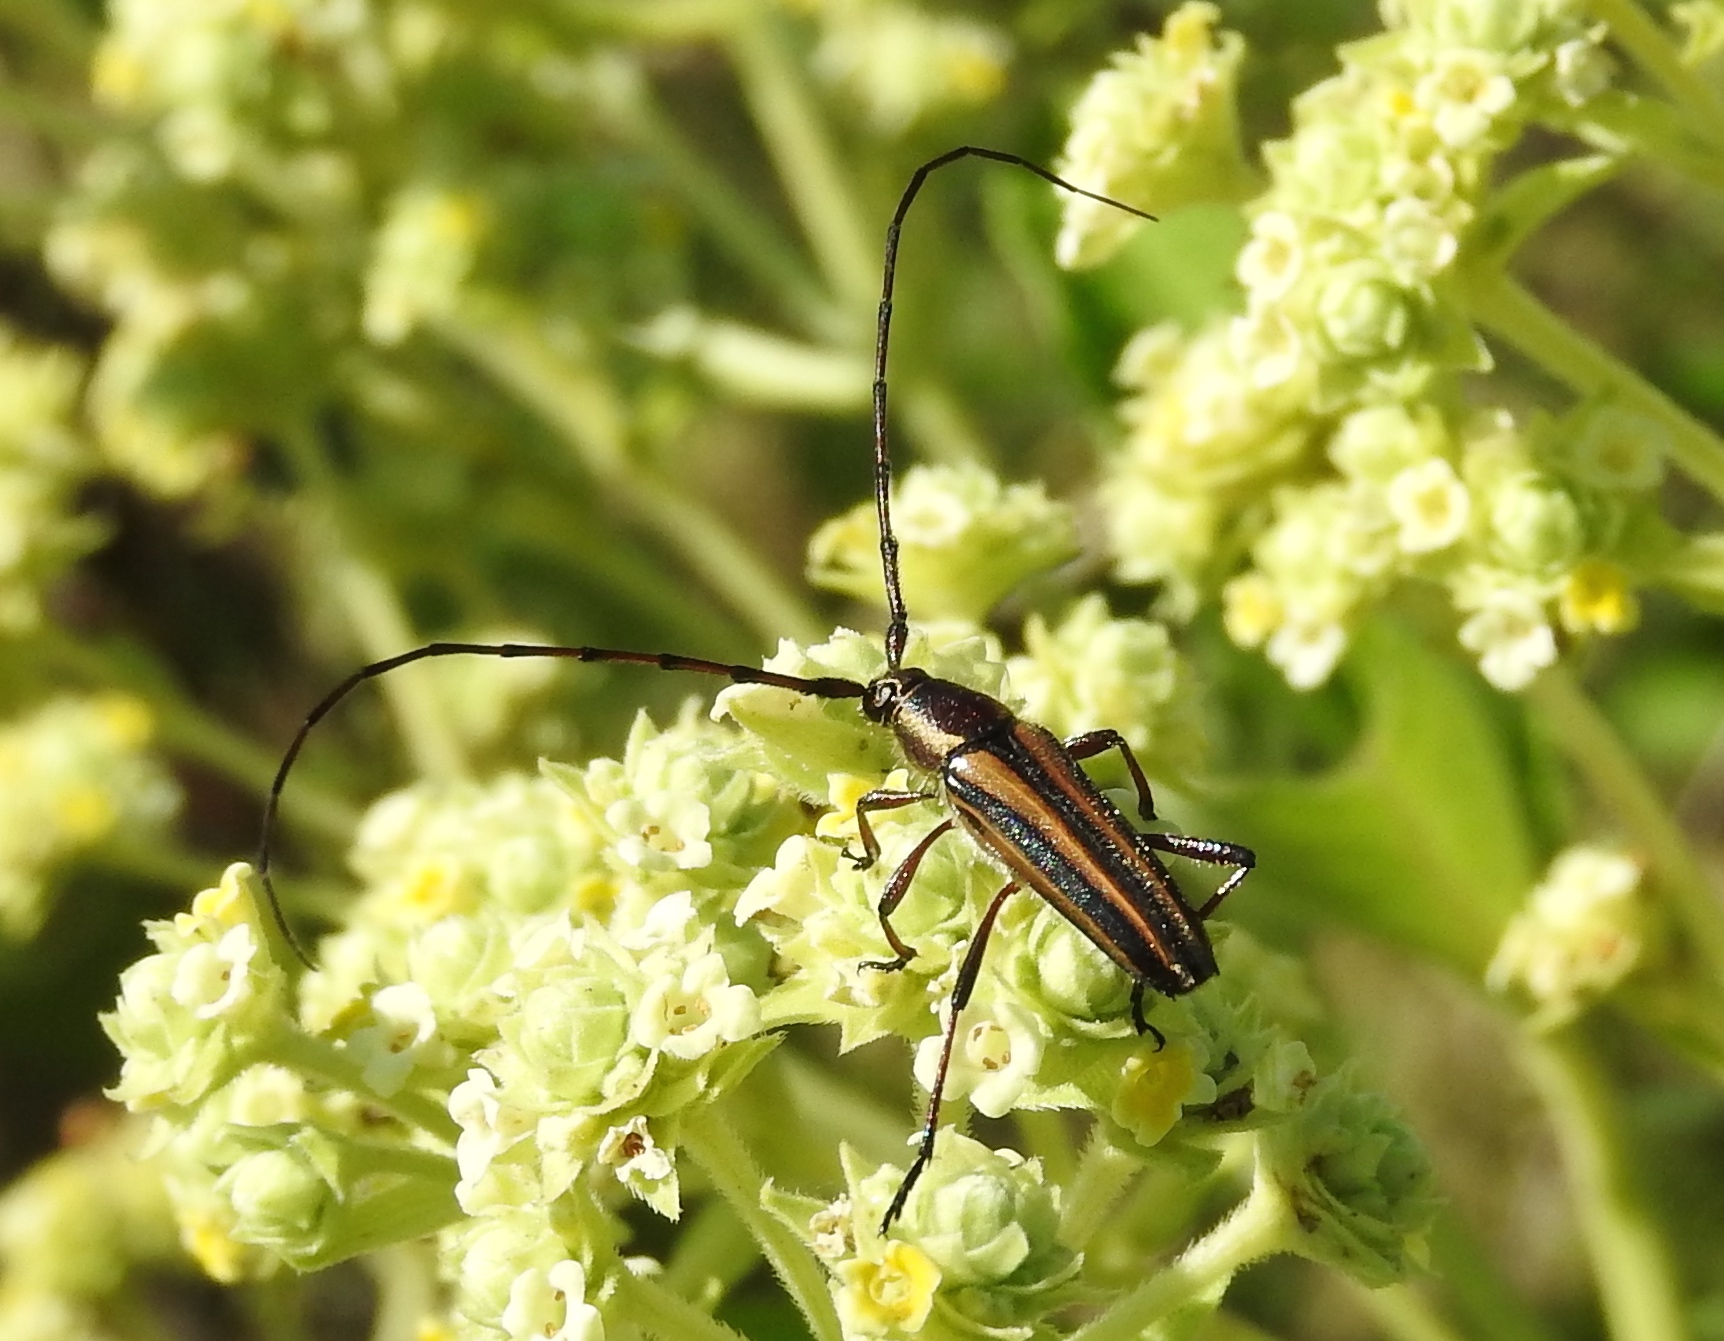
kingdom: Animalia
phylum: Arthropoda
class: Insecta
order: Coleoptera
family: Cerambycidae
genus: Sphaenothecus
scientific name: Sphaenothecus picticornis
